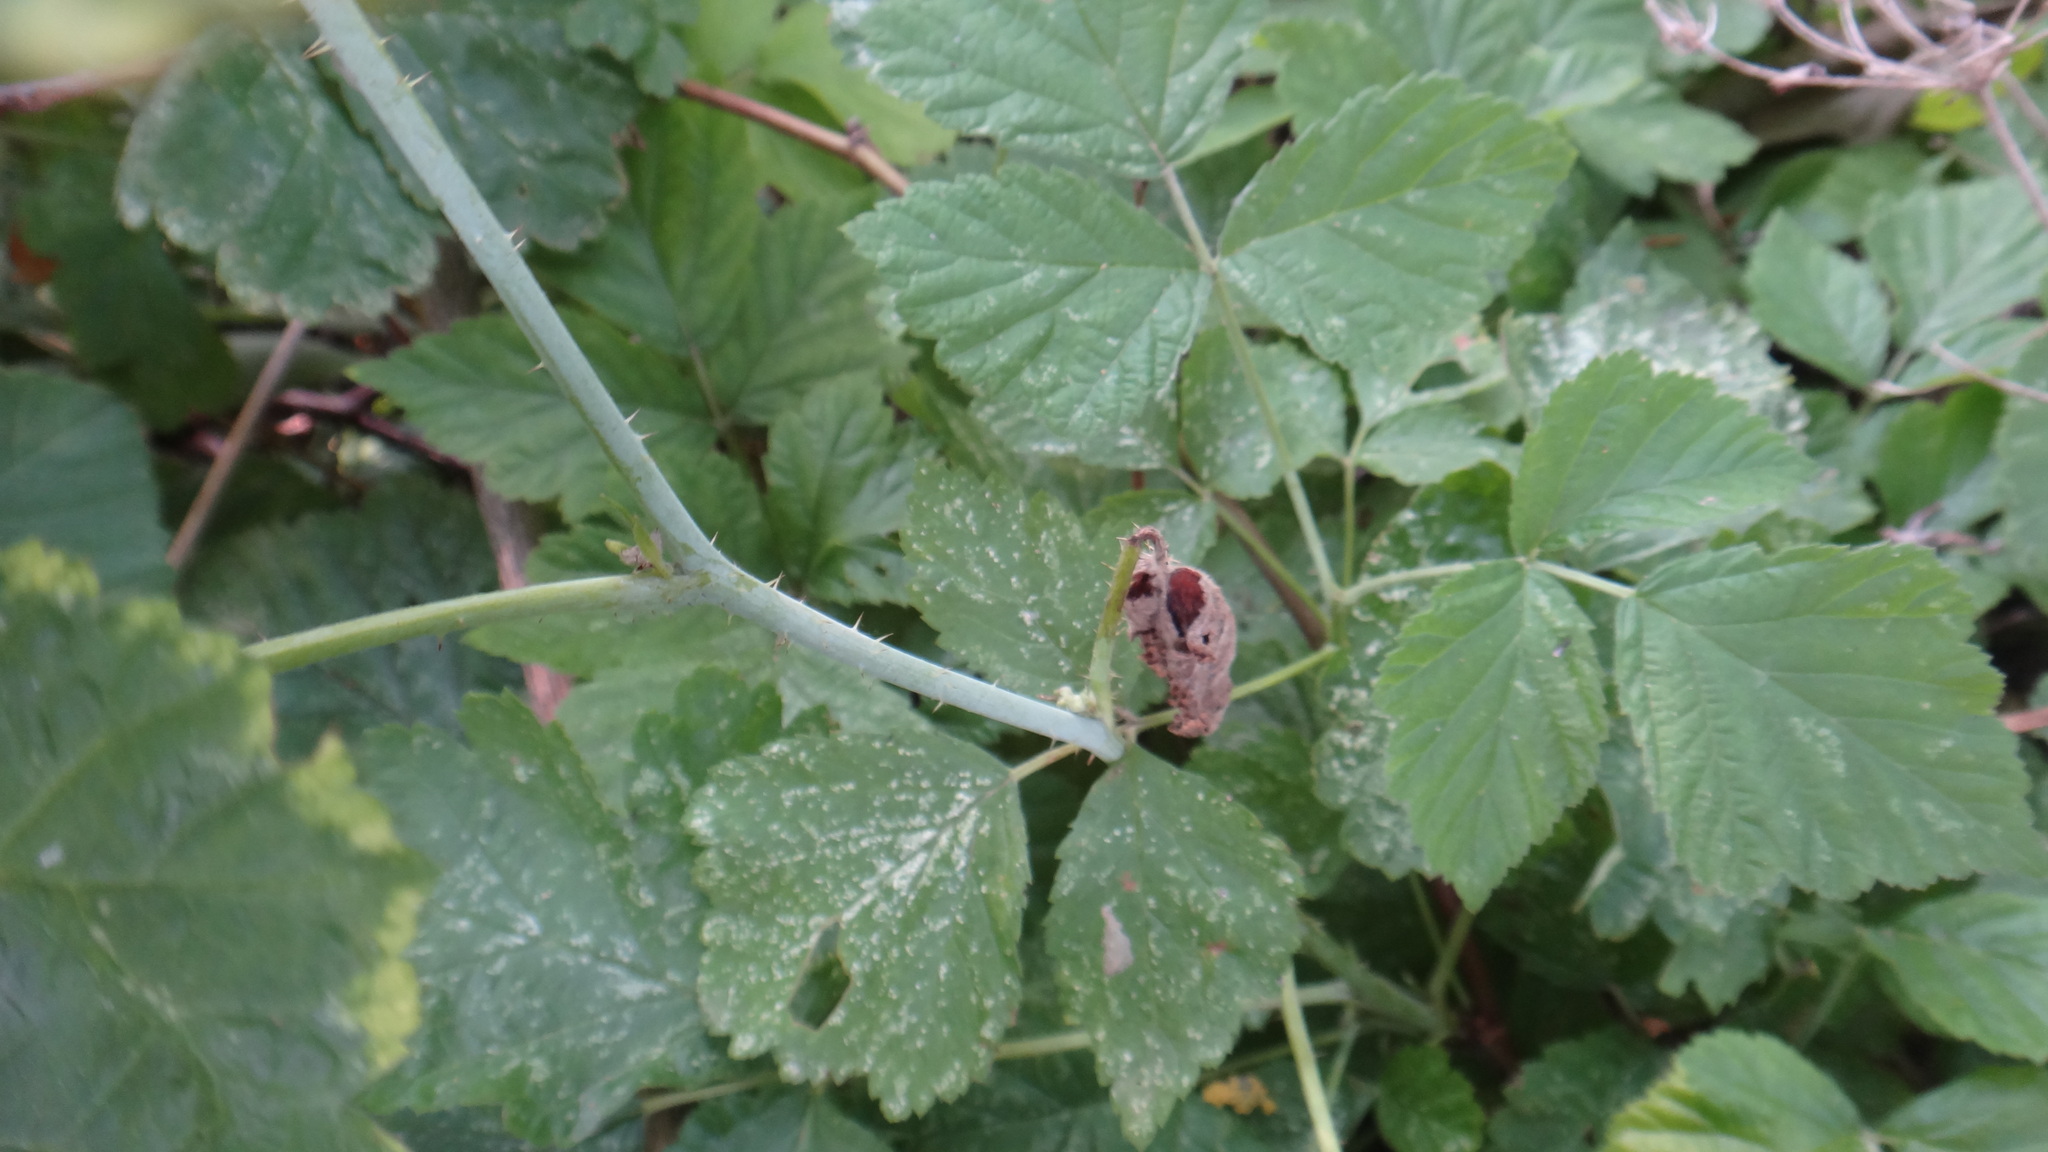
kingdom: Plantae
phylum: Tracheophyta
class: Magnoliopsida
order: Rosales
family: Rosaceae
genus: Rubus
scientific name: Rubus caesius
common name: Dewberry
